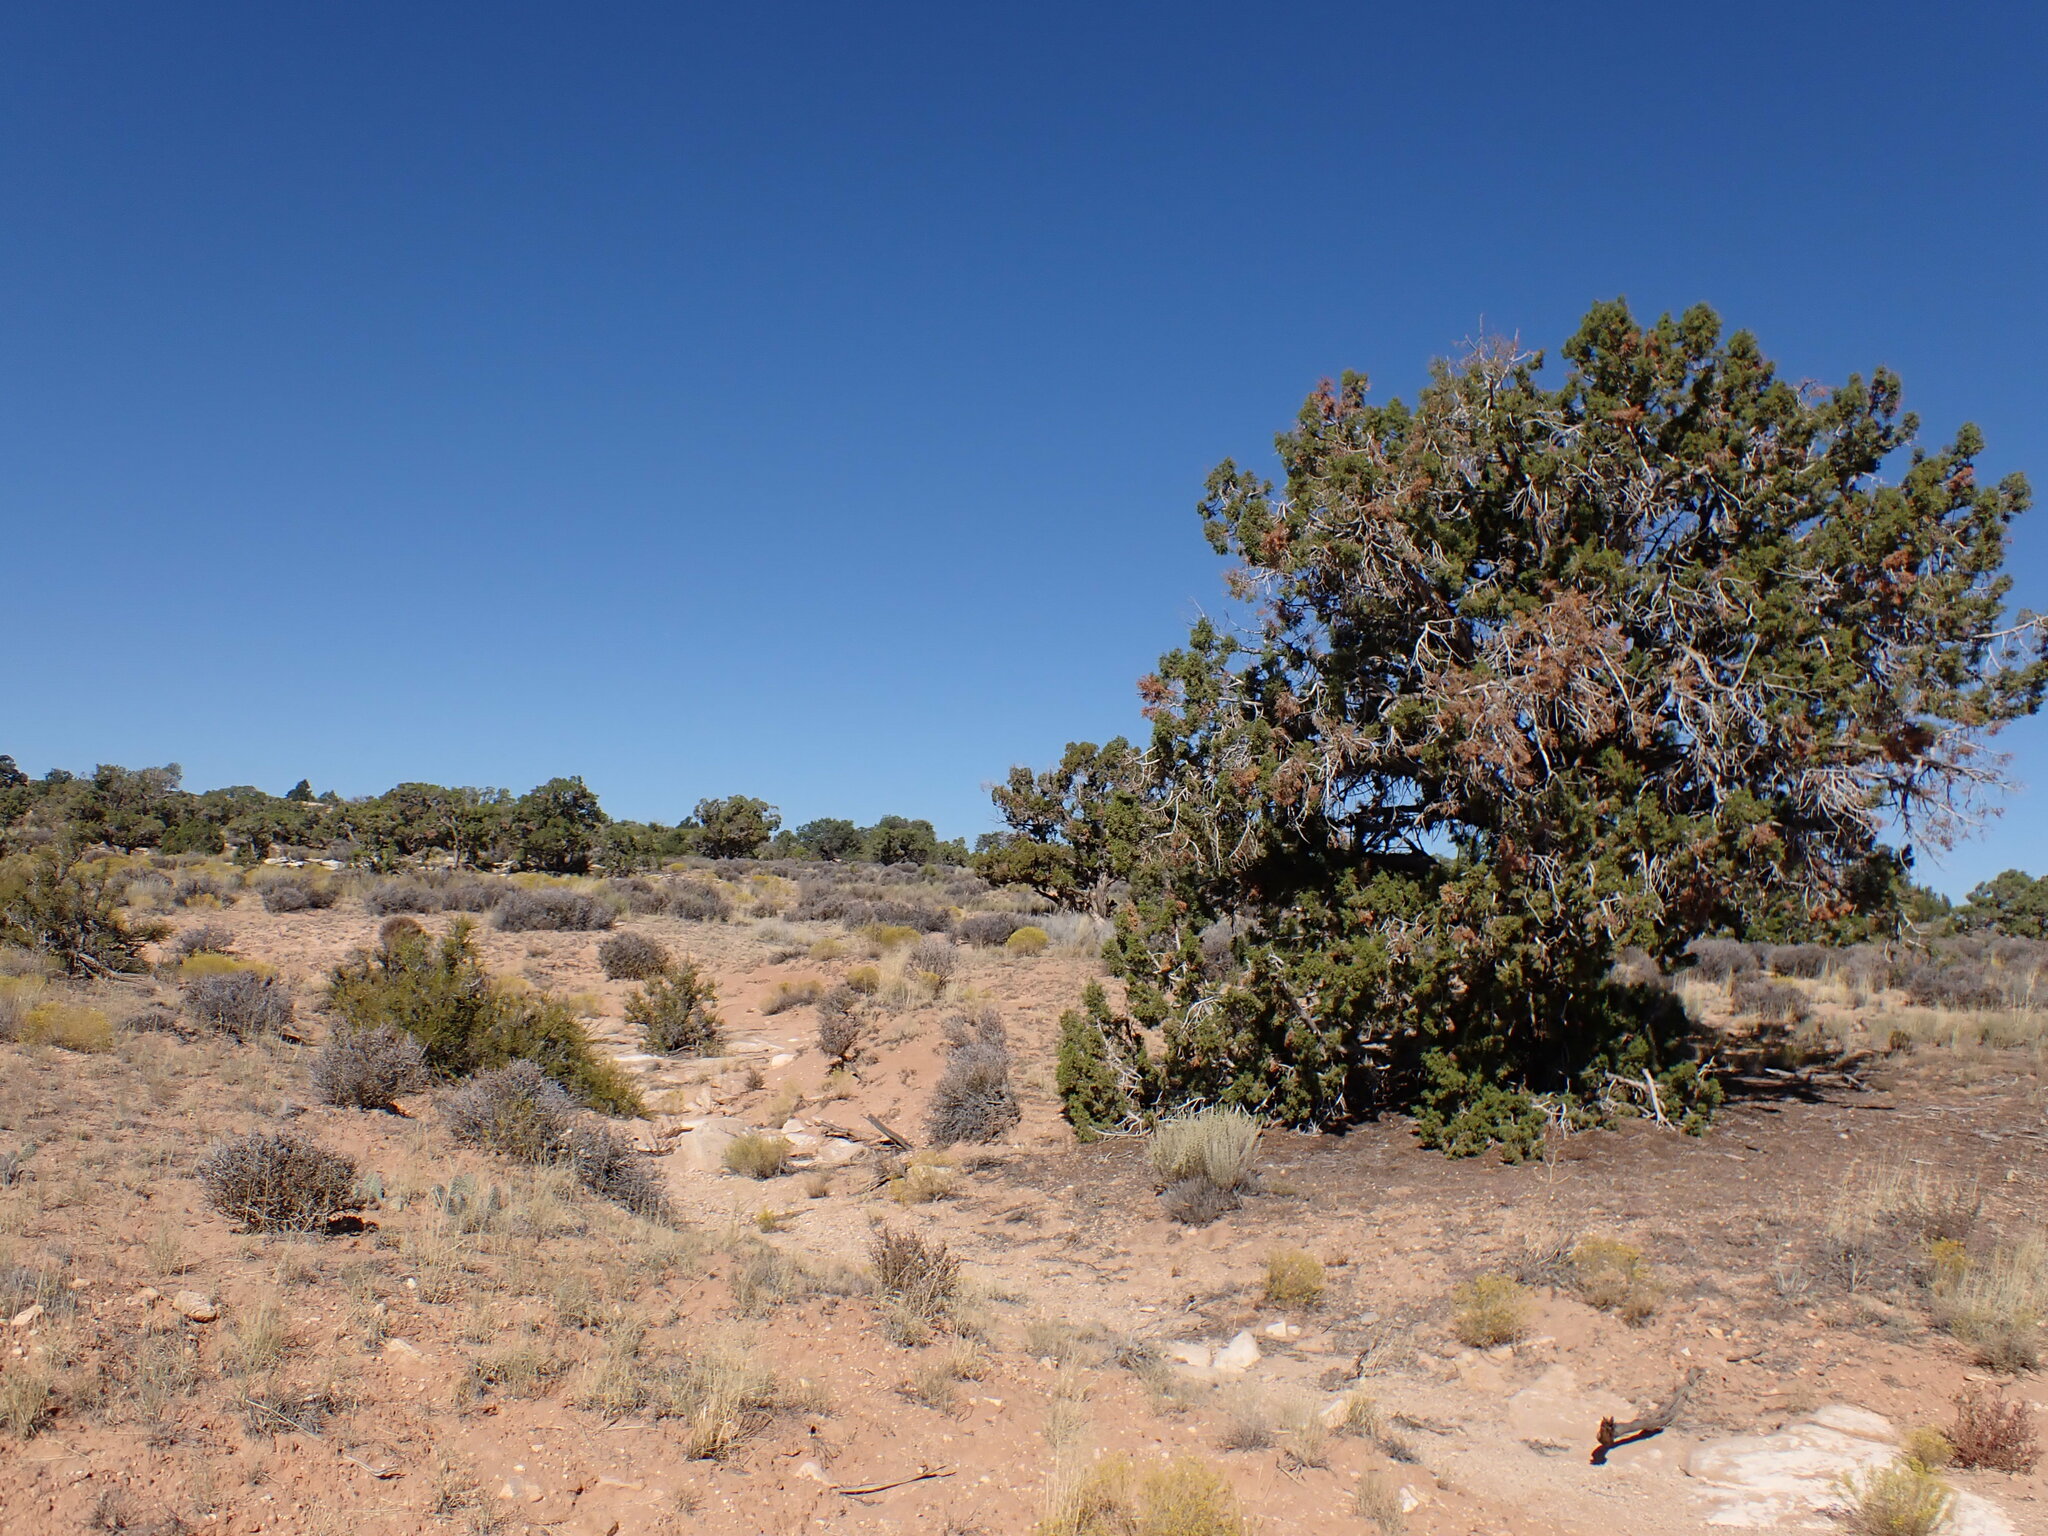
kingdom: Plantae
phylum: Tracheophyta
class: Pinopsida
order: Pinales
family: Cupressaceae
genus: Juniperus
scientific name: Juniperus osteosperma
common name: Utah juniper
